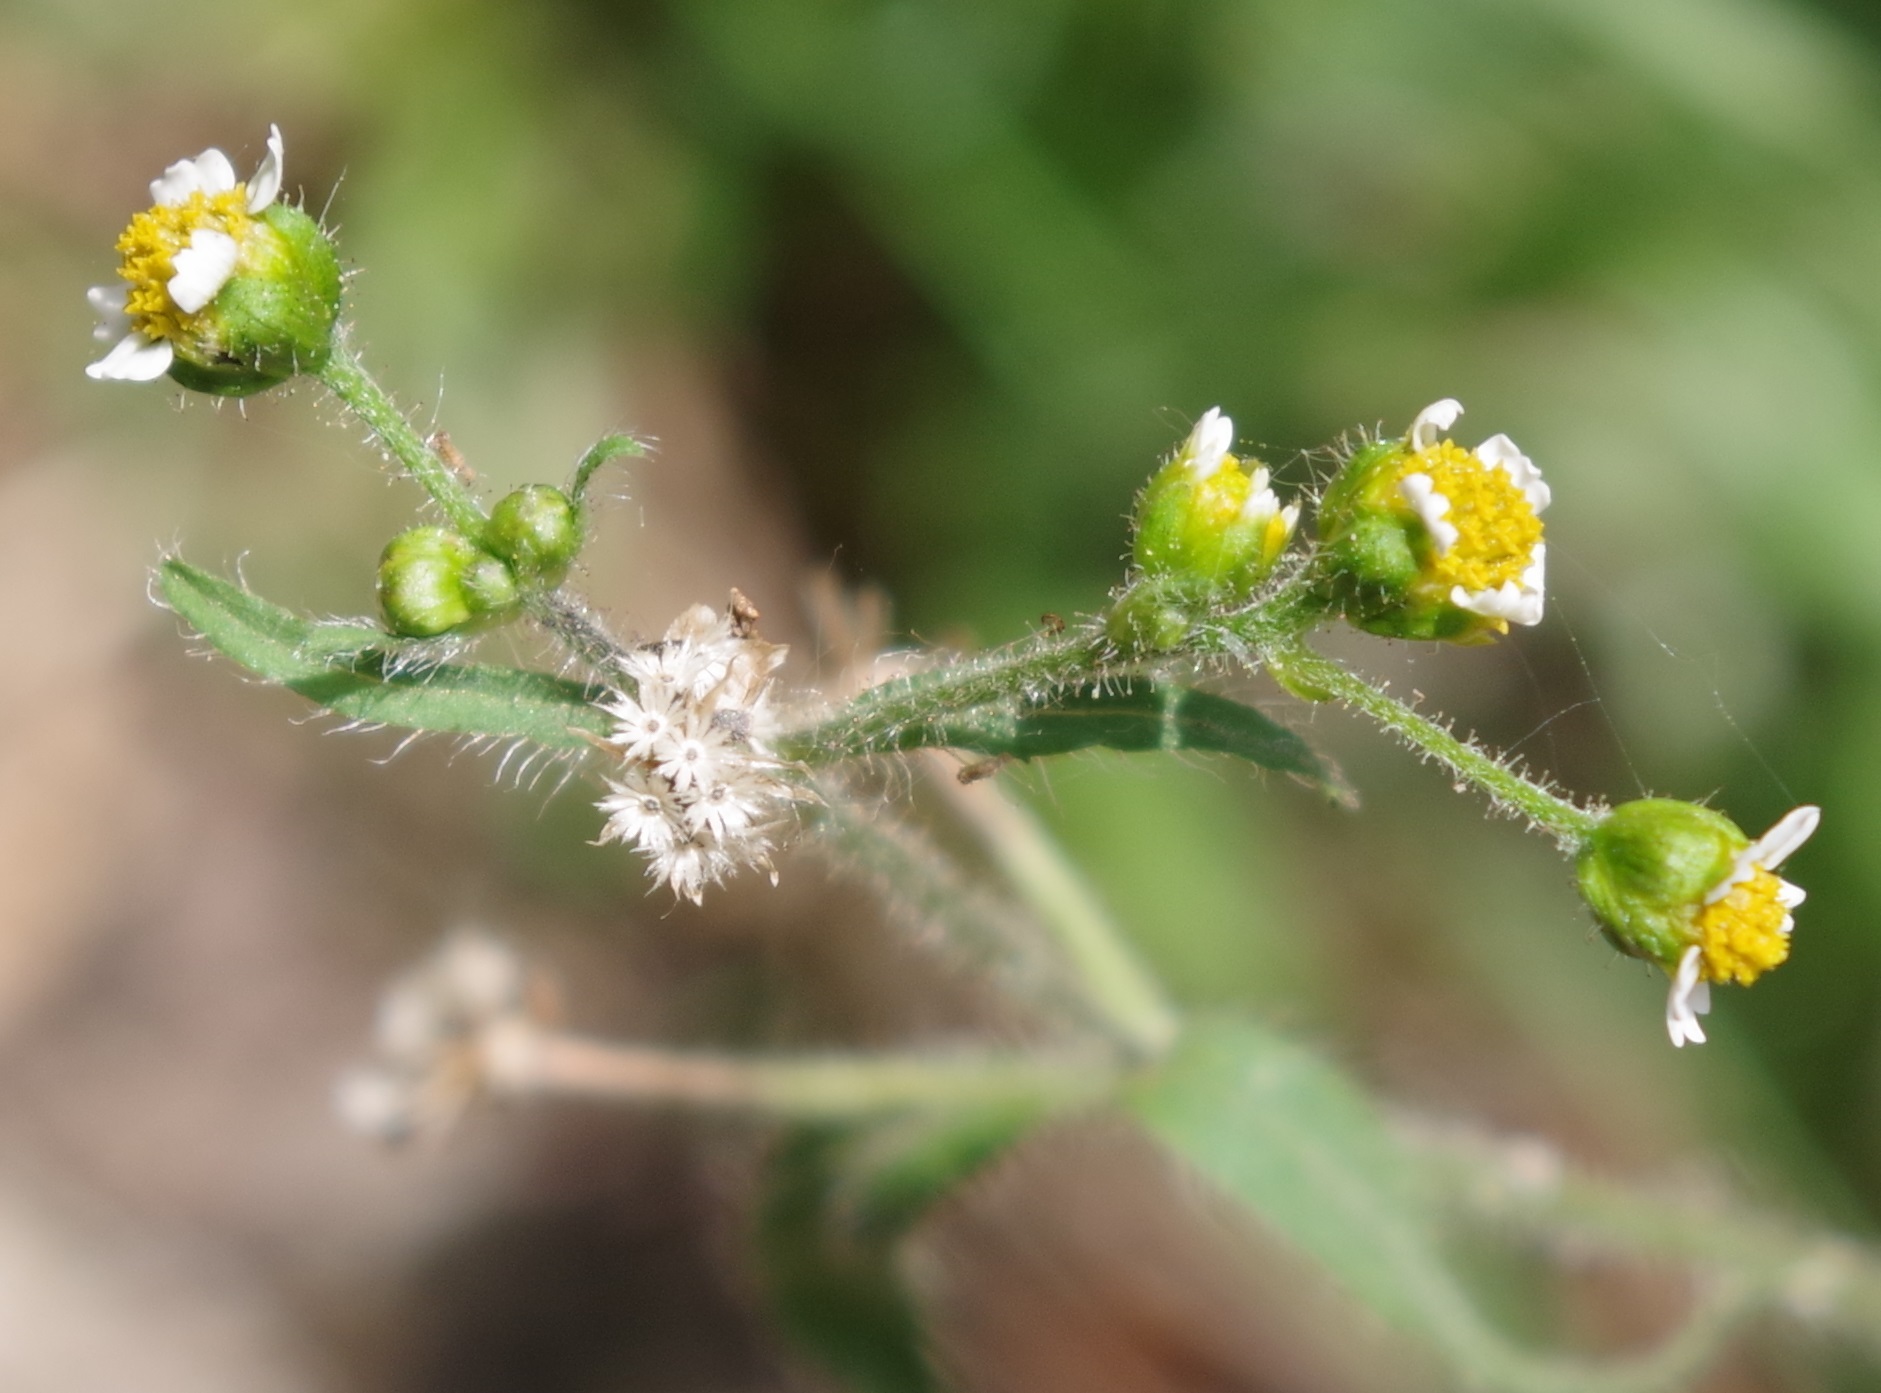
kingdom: Plantae
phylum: Tracheophyta
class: Magnoliopsida
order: Asterales
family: Asteraceae
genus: Galinsoga
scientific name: Galinsoga quadriradiata
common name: Shaggy soldier
